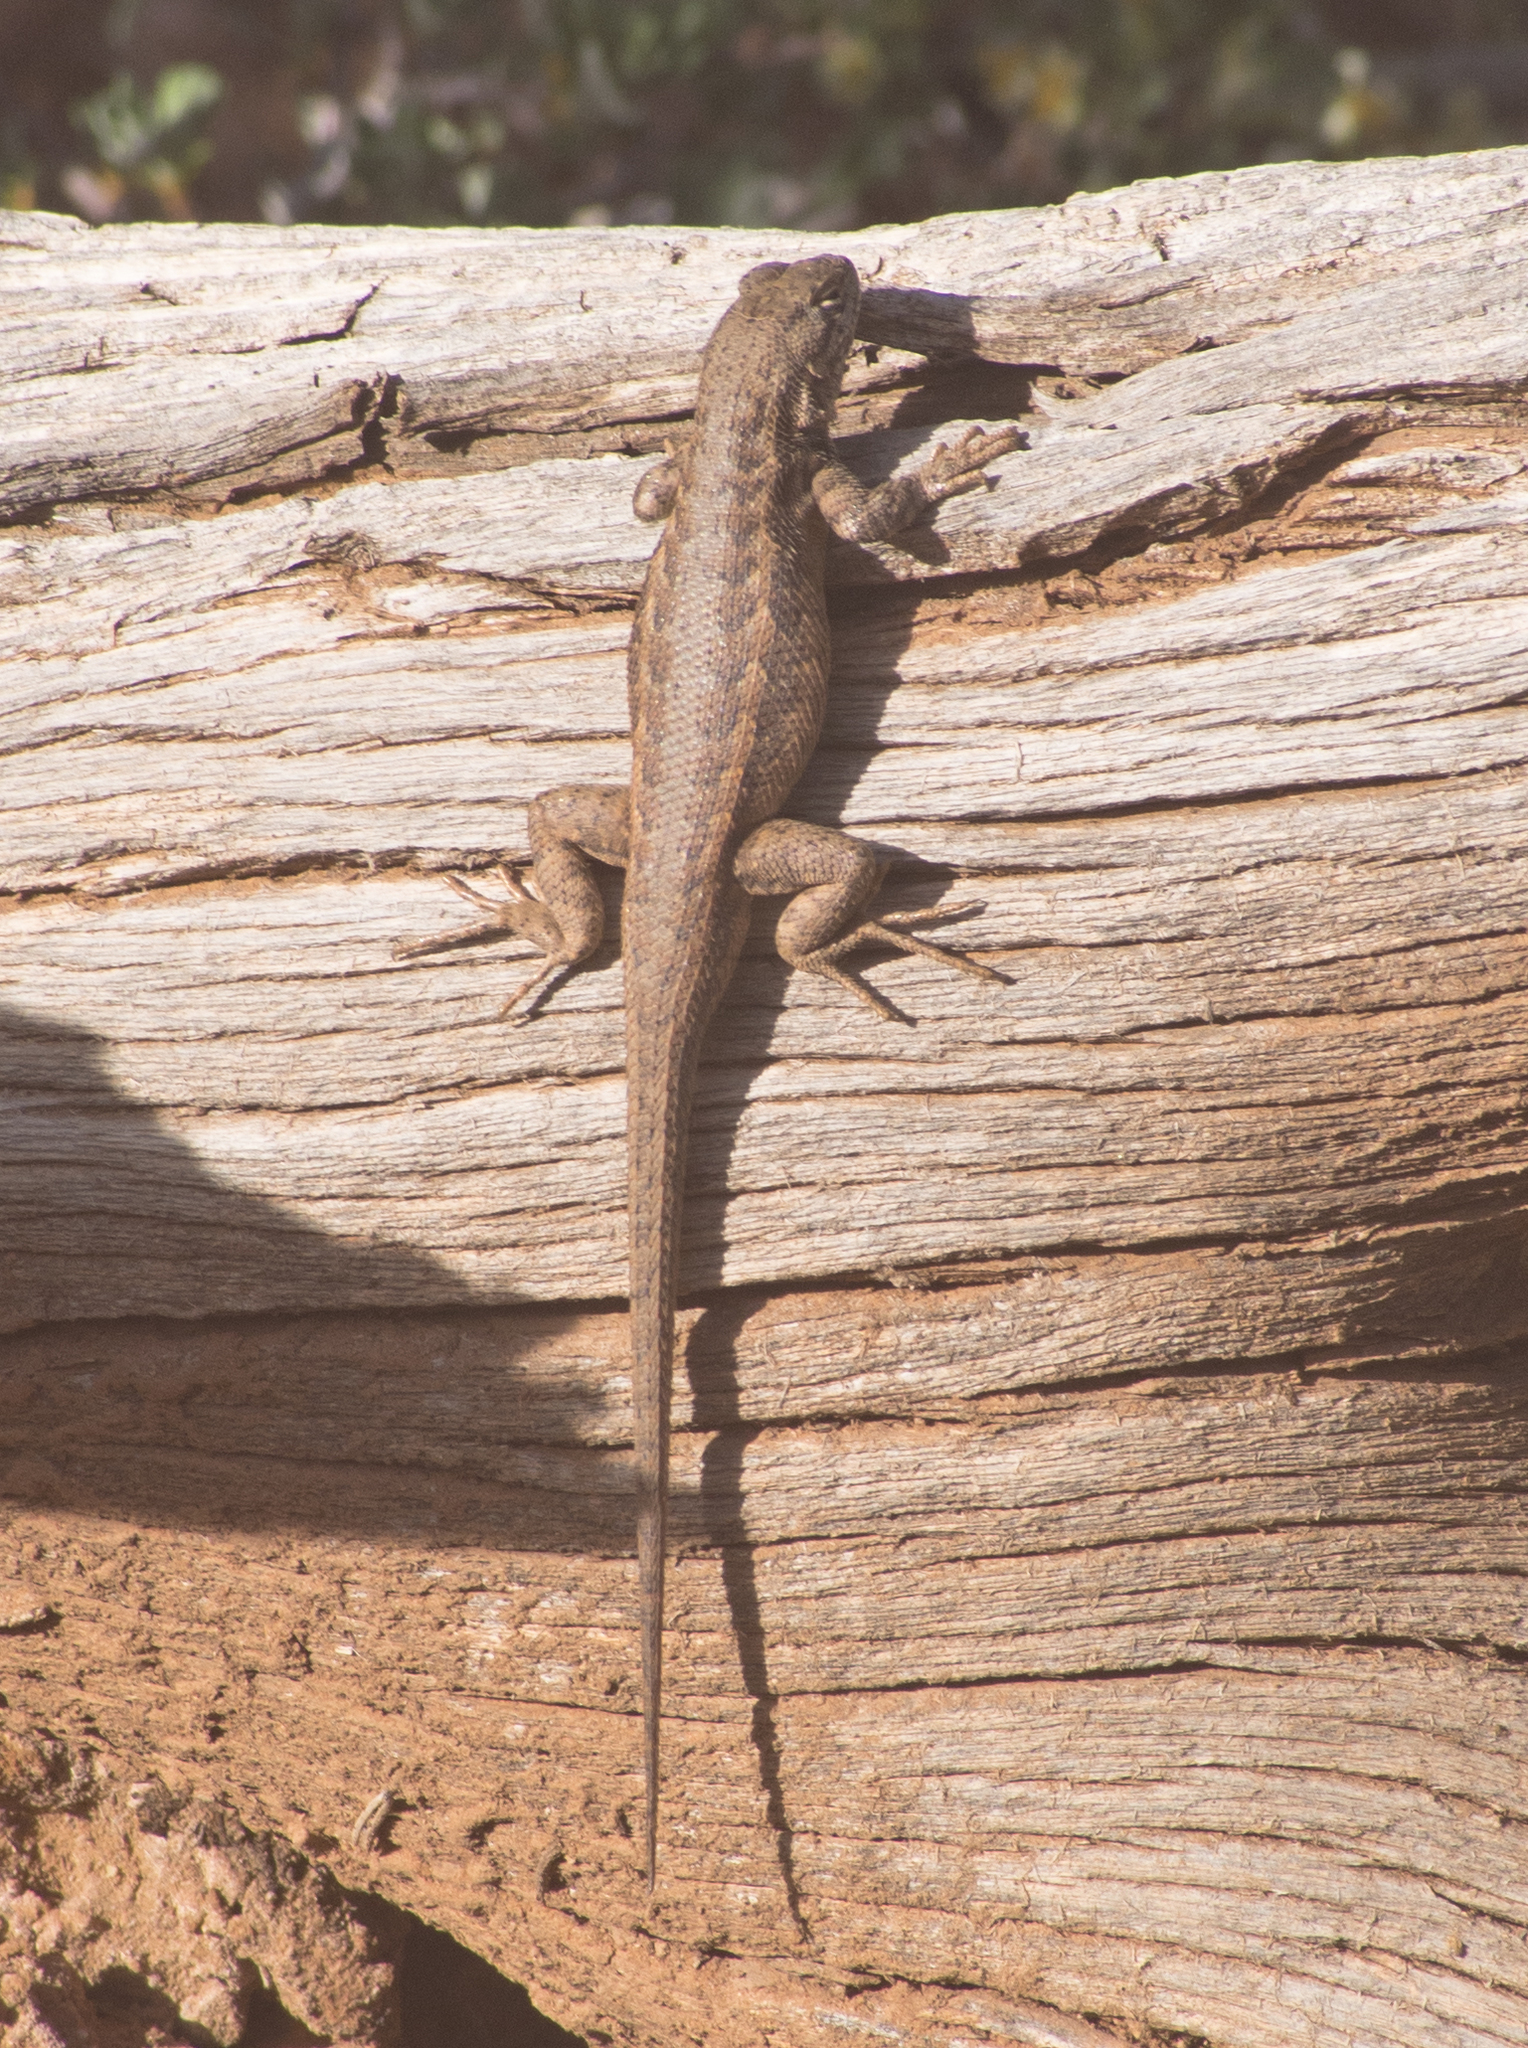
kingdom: Animalia
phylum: Chordata
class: Squamata
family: Phrynosomatidae
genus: Sceloporus
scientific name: Sceloporus graciosus
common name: Sagebrush lizard
